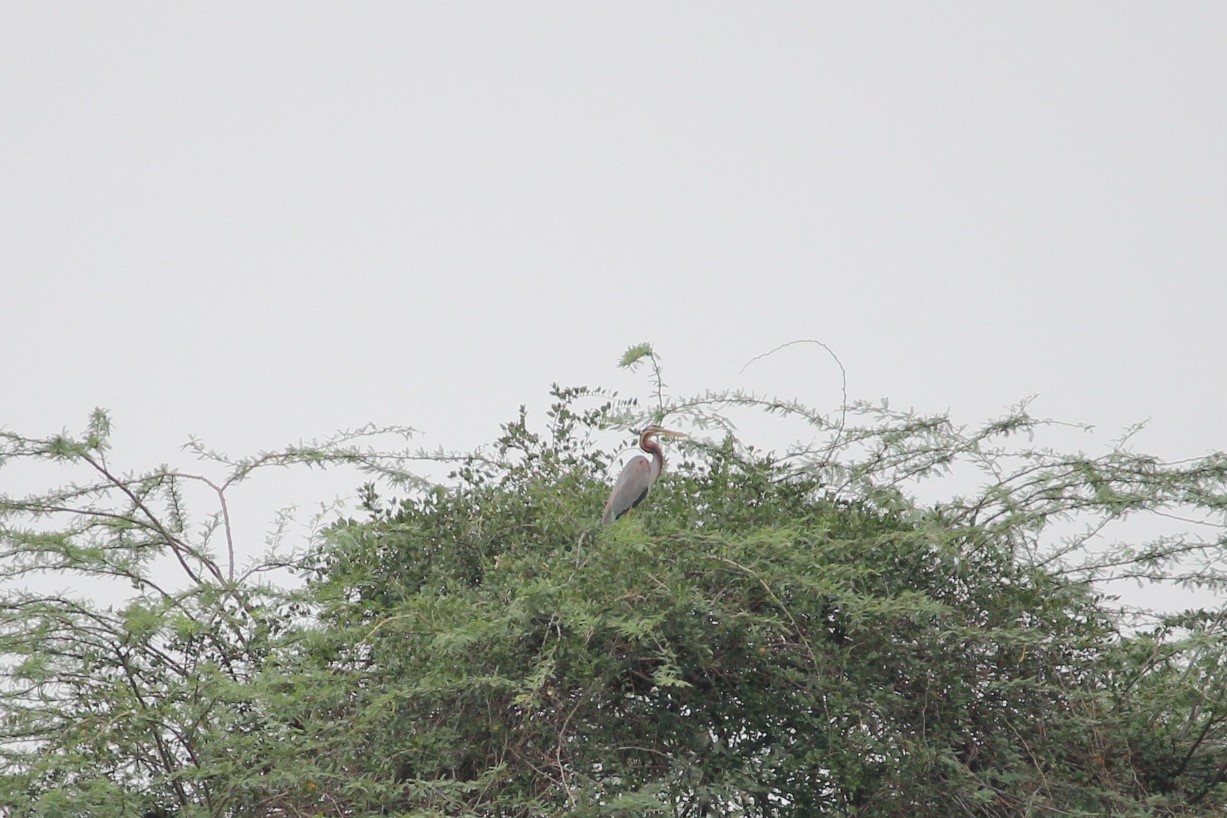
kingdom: Animalia
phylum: Chordata
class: Aves
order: Pelecaniformes
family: Ardeidae
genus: Ardea
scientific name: Ardea purpurea
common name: Purple heron
